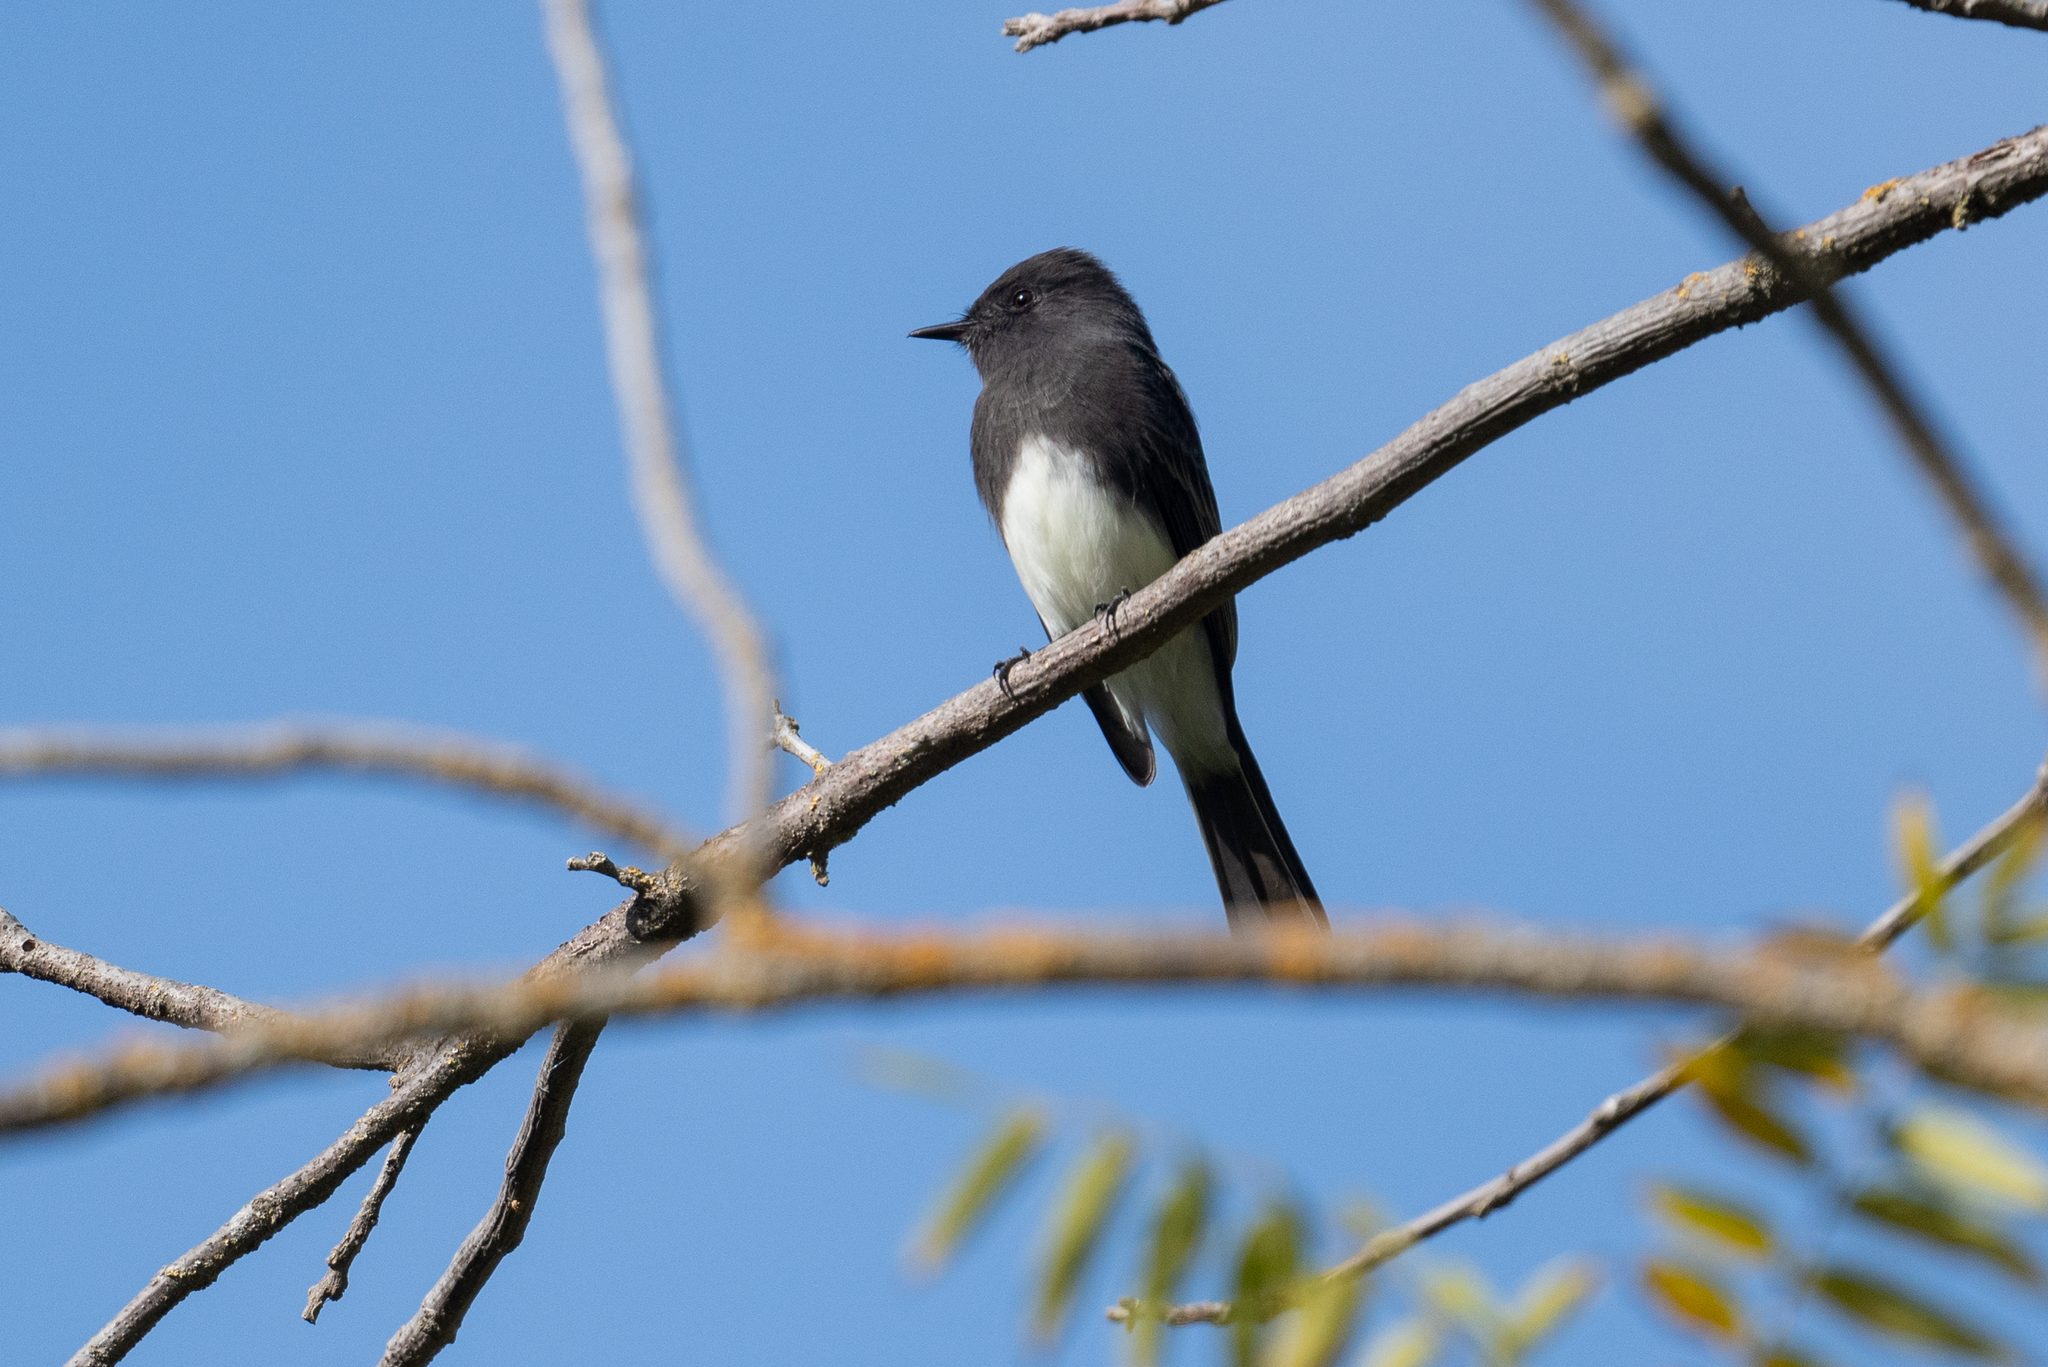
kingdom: Animalia
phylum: Chordata
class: Aves
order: Passeriformes
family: Tyrannidae
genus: Sayornis
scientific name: Sayornis nigricans
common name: Black phoebe
